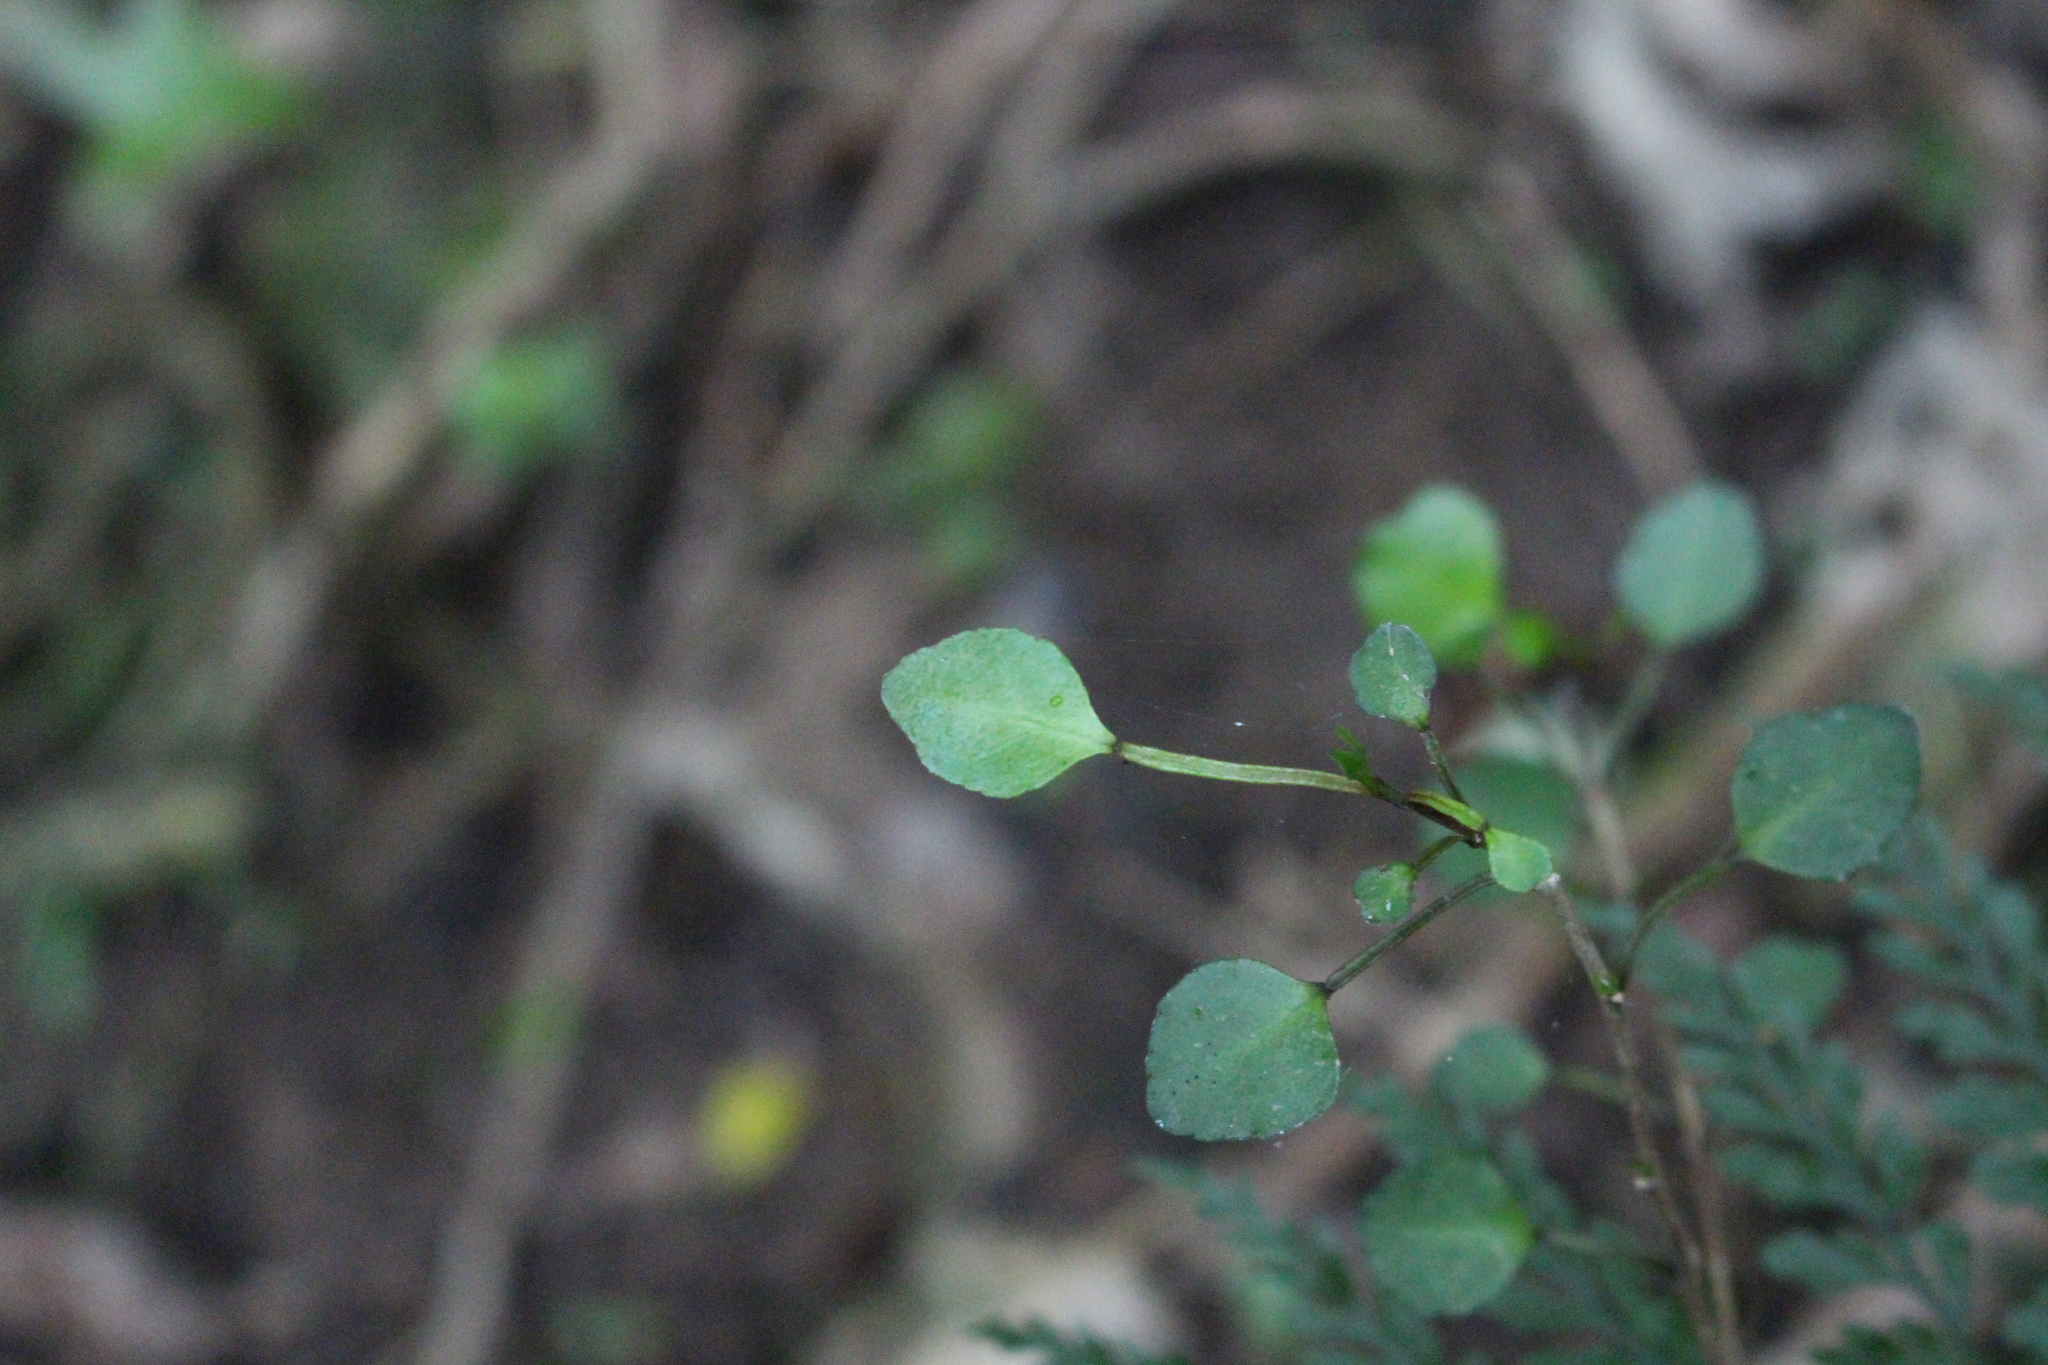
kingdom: Plantae
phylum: Tracheophyta
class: Magnoliopsida
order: Sapindales
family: Rutaceae
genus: Melicope
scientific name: Melicope simplex
